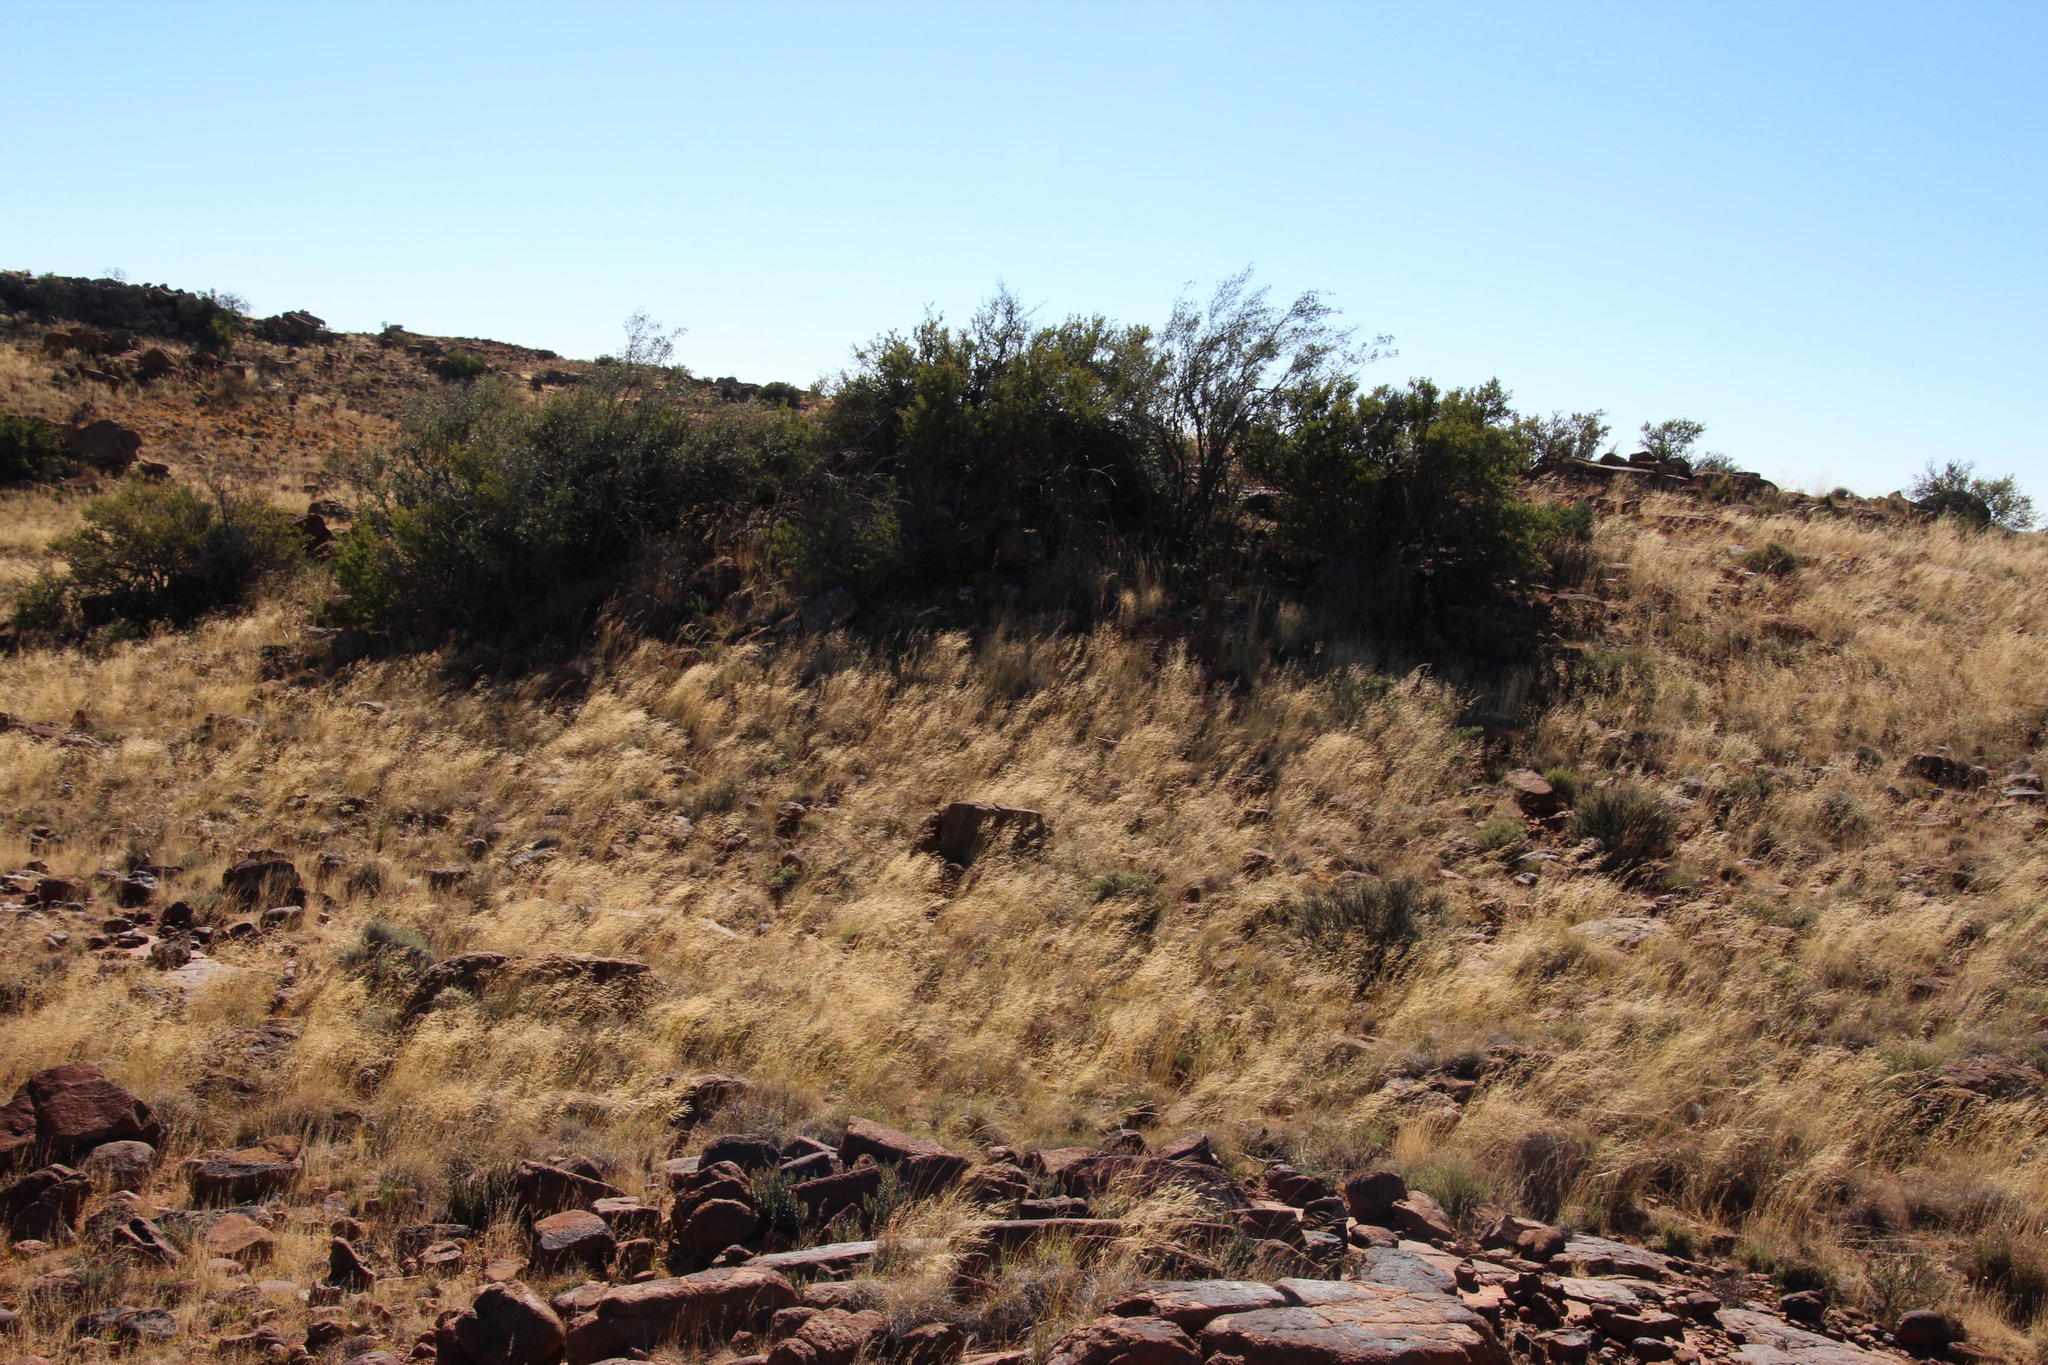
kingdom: Plantae
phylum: Tracheophyta
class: Magnoliopsida
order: Ericales
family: Ebenaceae
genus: Diospyros
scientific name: Diospyros pubescens
